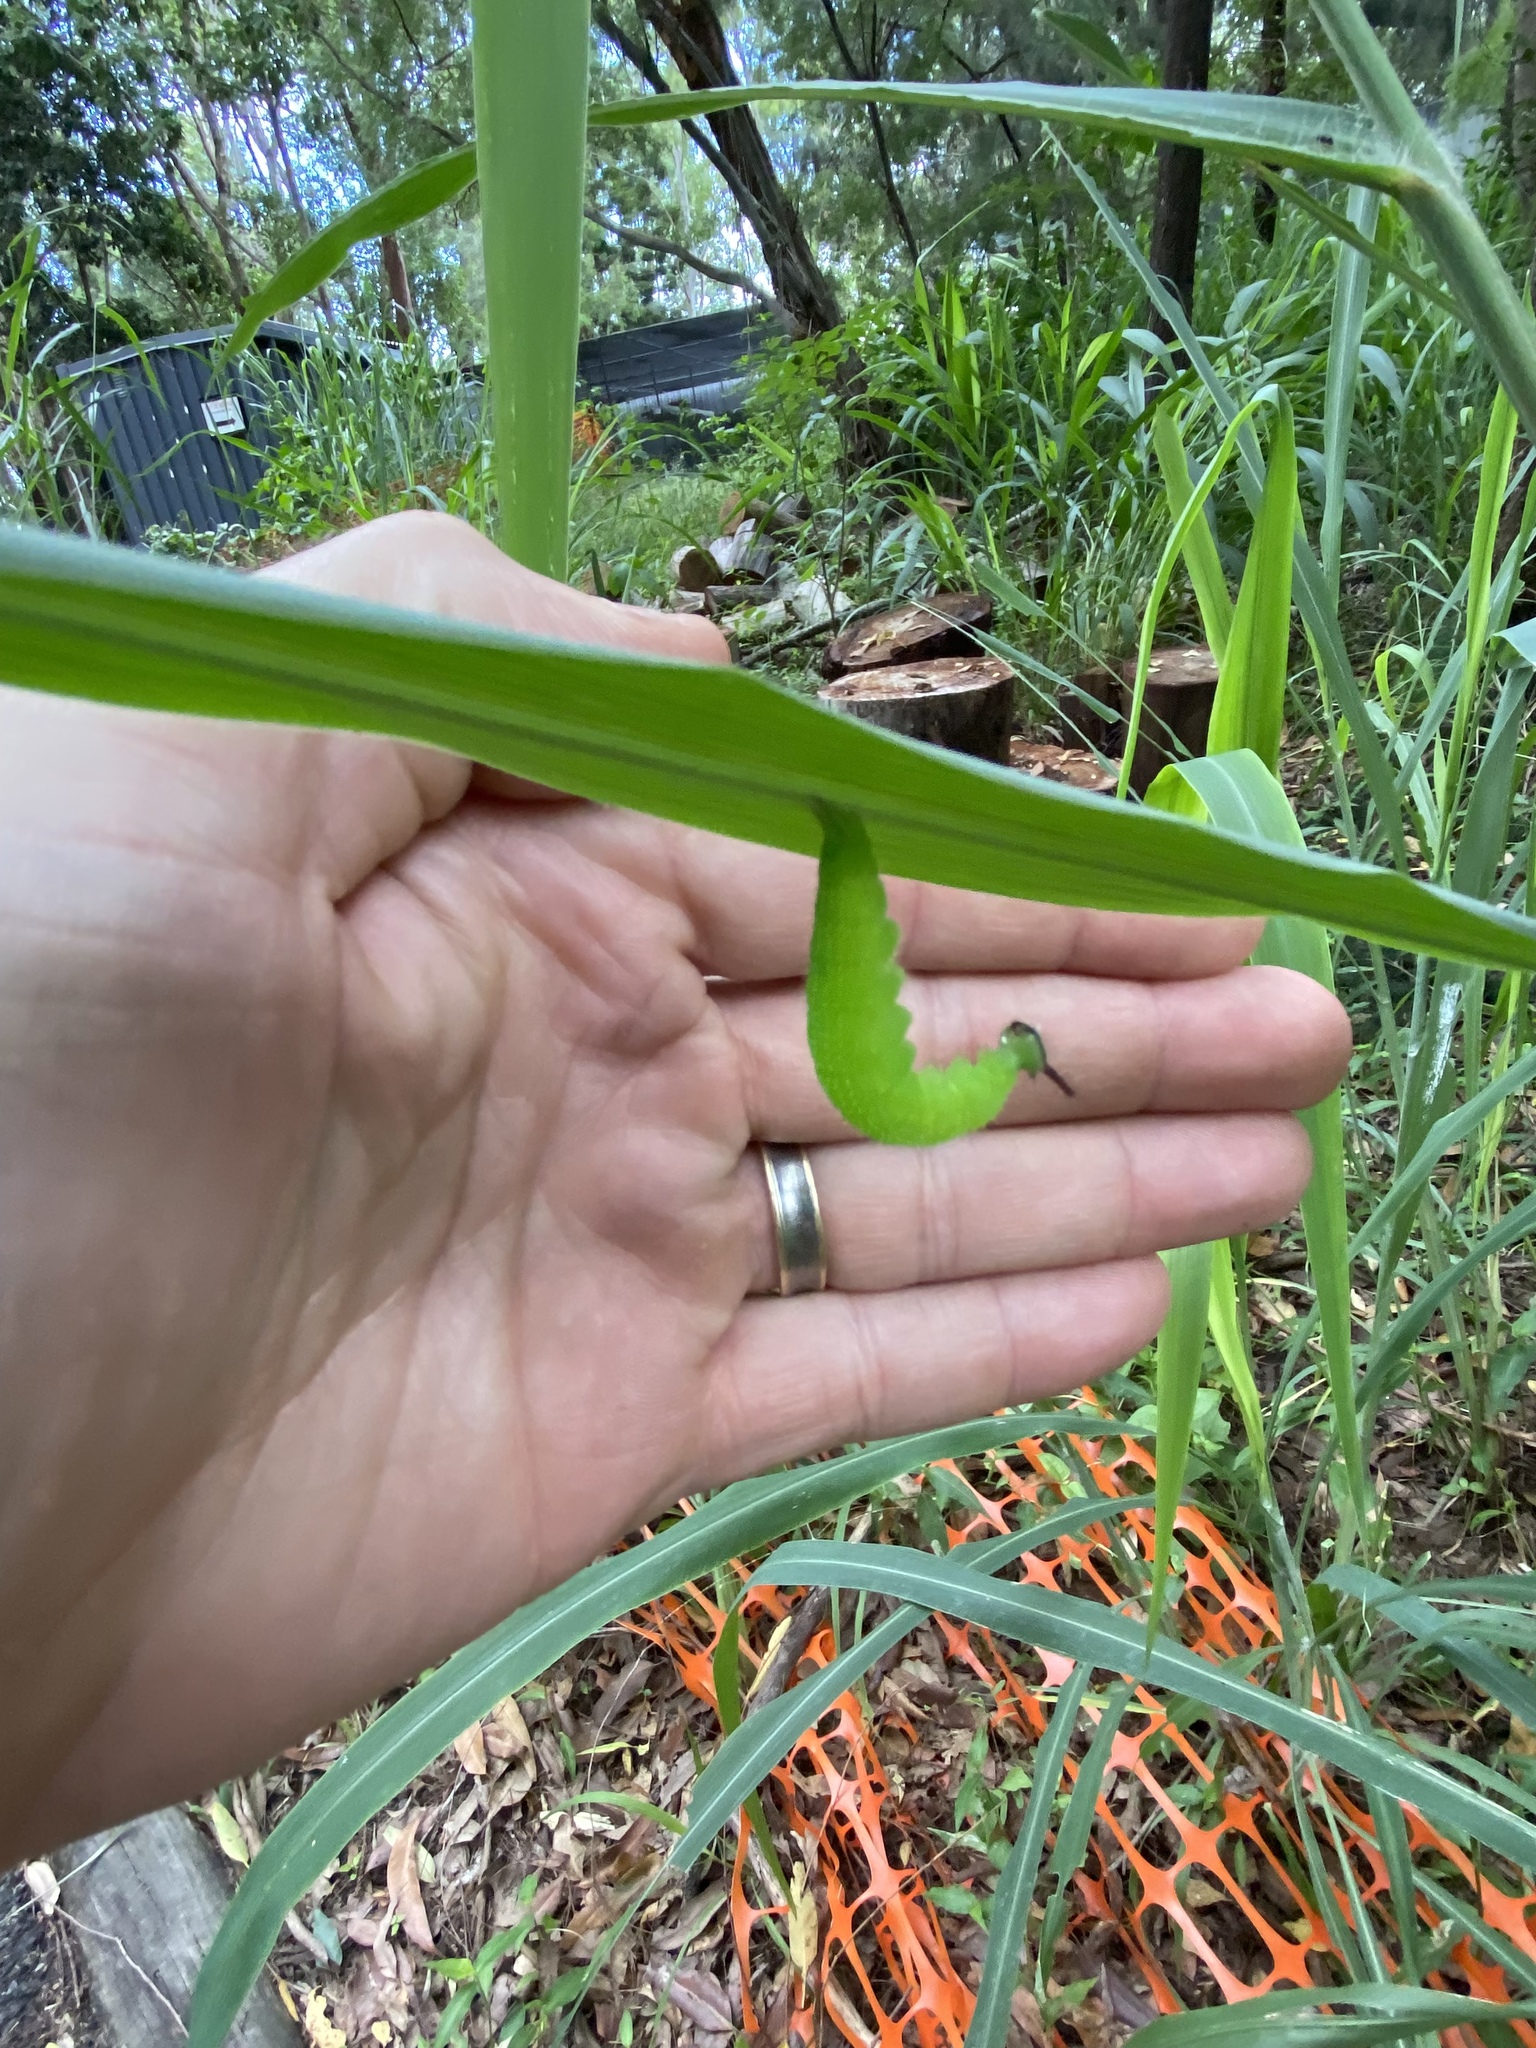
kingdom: Animalia
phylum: Arthropoda
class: Insecta
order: Lepidoptera
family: Nymphalidae
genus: Melanitis
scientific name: Melanitis leda
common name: Twilight brown
